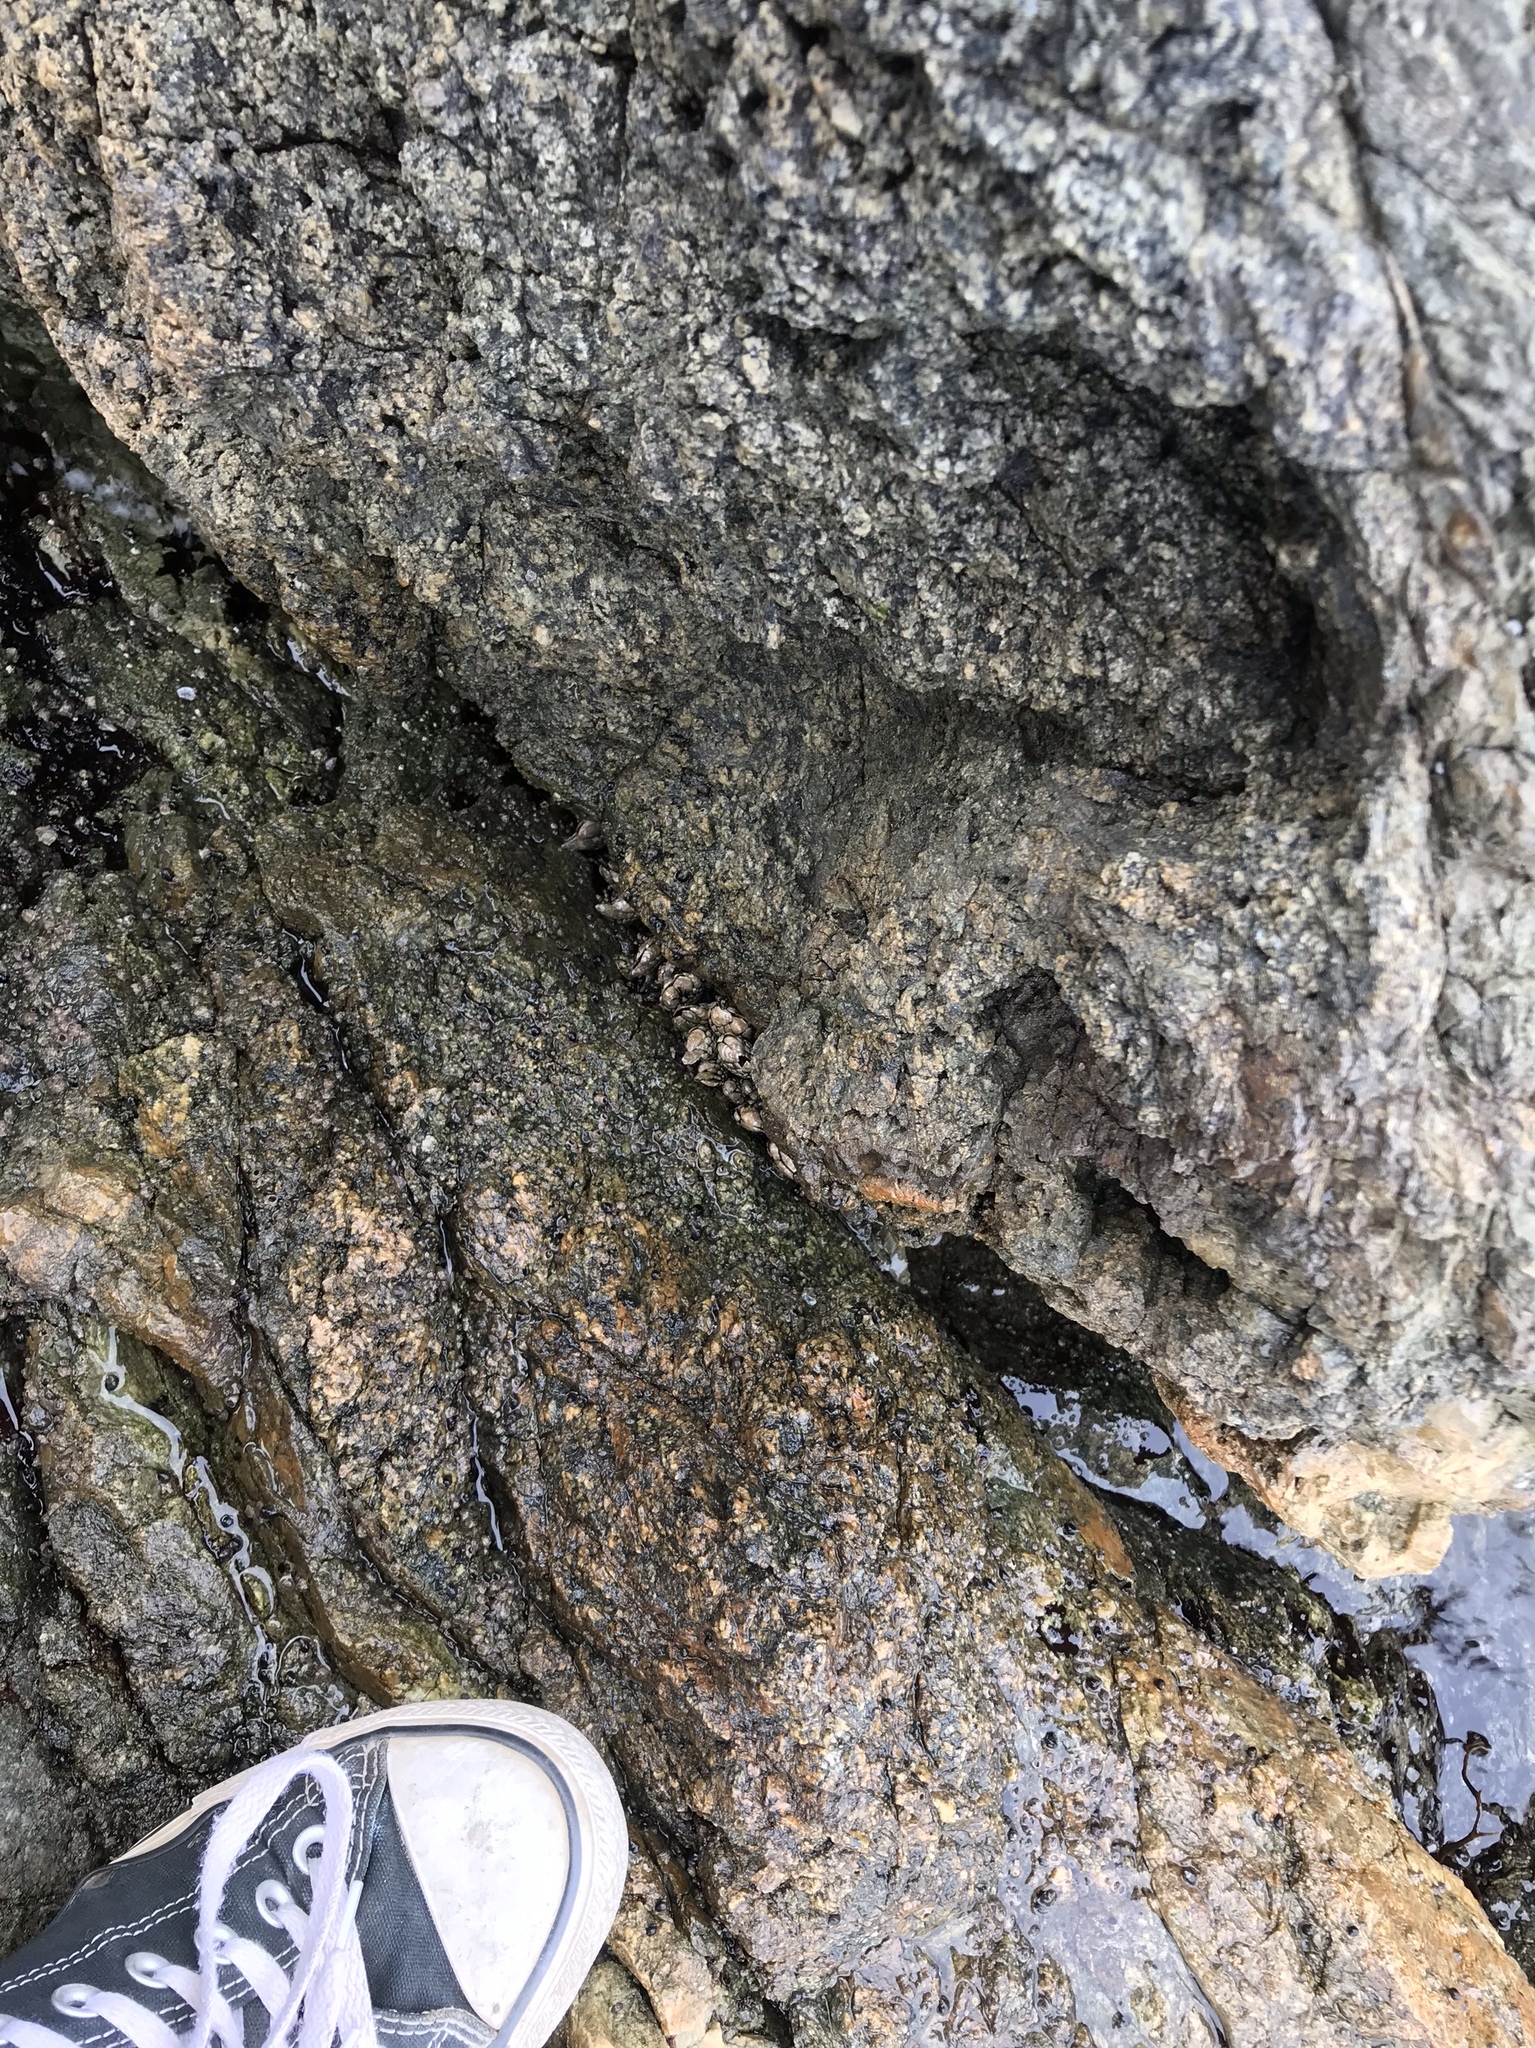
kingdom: Animalia
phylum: Arthropoda
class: Maxillopoda
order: Pedunculata
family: Pollicipedidae
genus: Pollicipes
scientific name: Pollicipes polymerus
